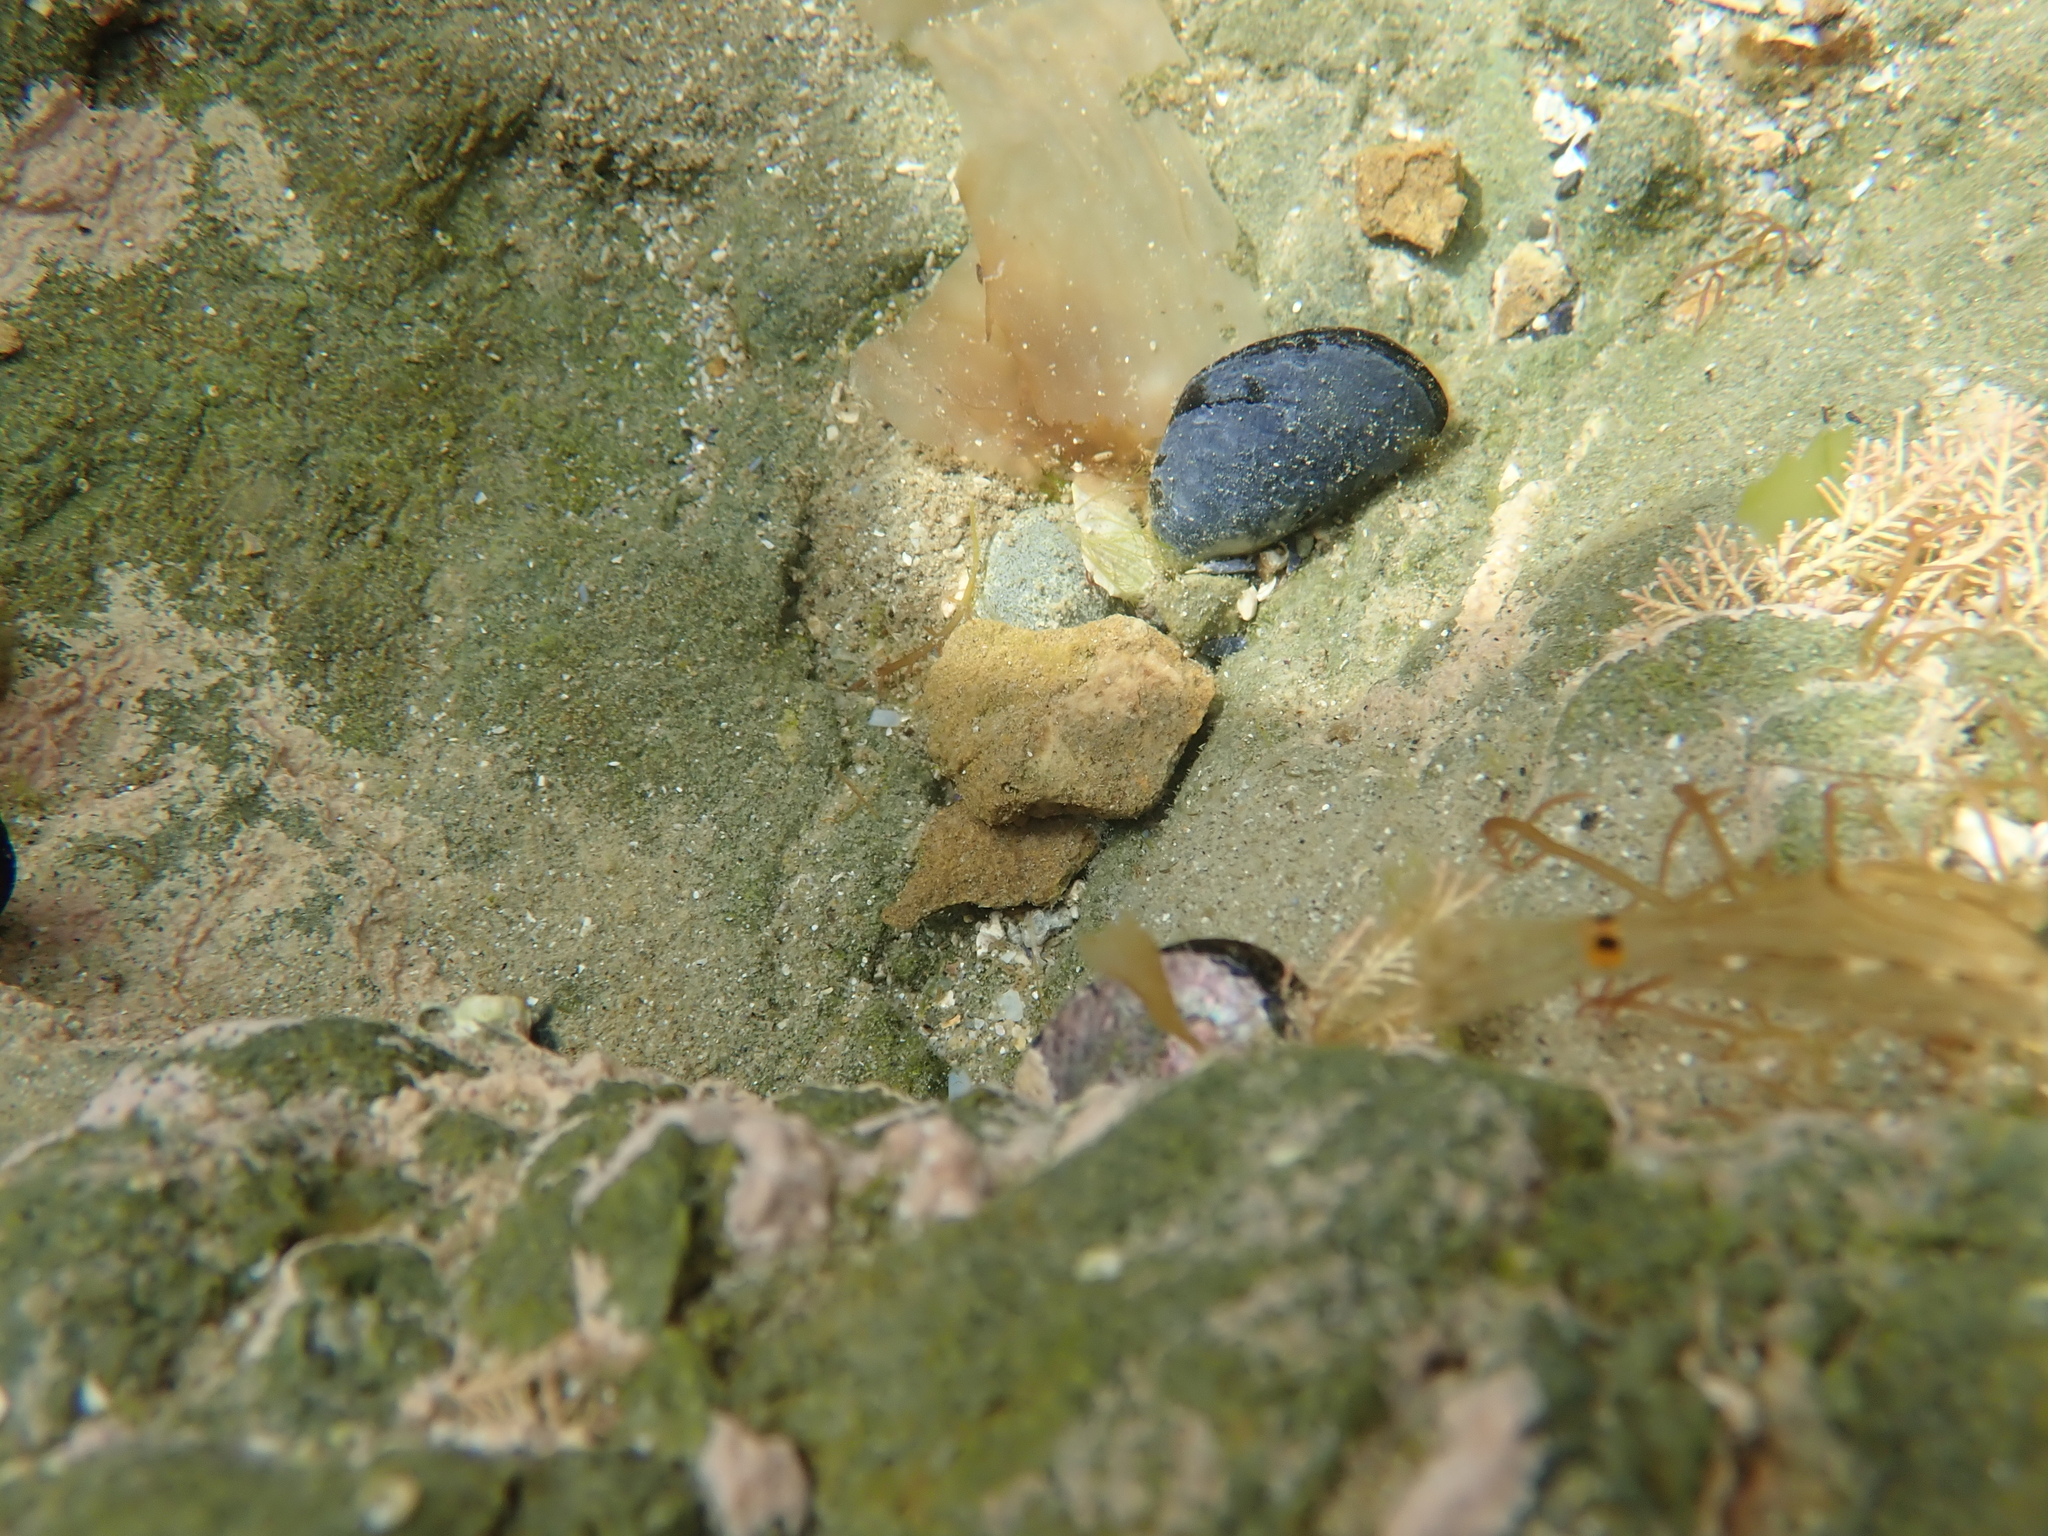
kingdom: Animalia
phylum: Mollusca
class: Bivalvia
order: Mytilida
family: Mytilidae
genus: Mytilus
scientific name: Mytilus planulatus
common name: Australian mussel
